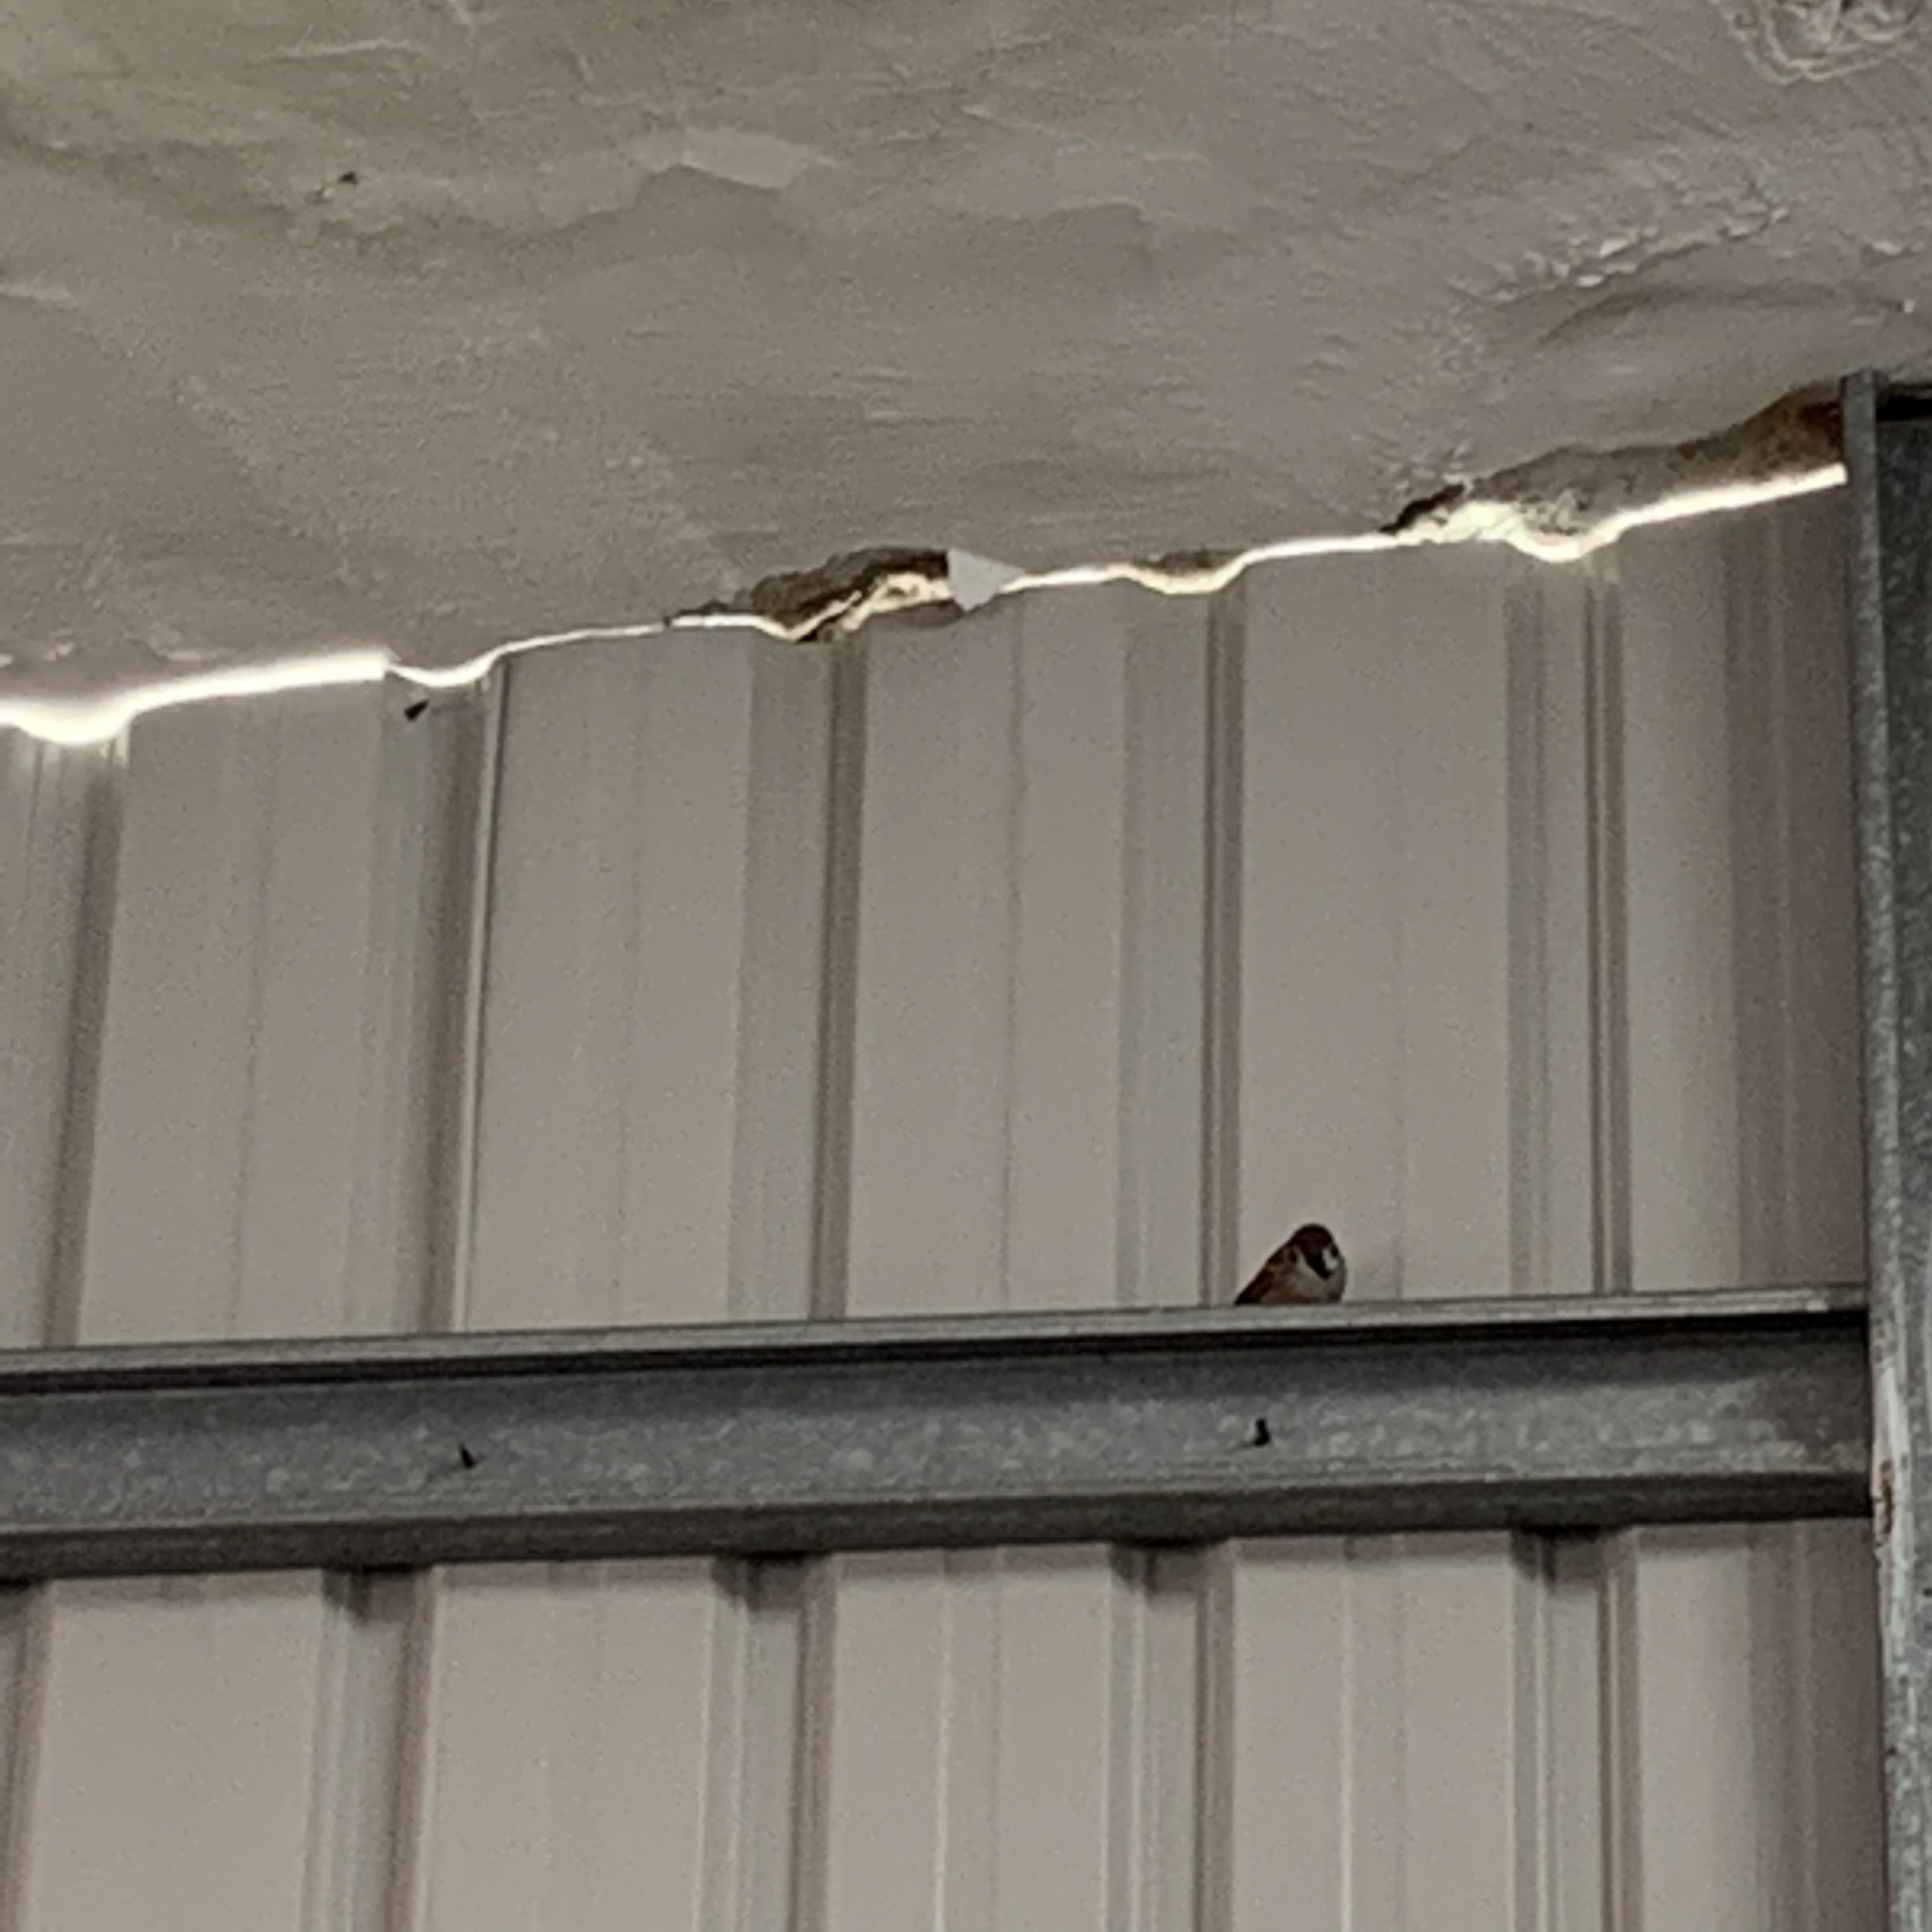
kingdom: Animalia
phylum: Chordata
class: Aves
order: Passeriformes
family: Passeridae
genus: Passer
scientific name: Passer montanus
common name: Eurasian tree sparrow
